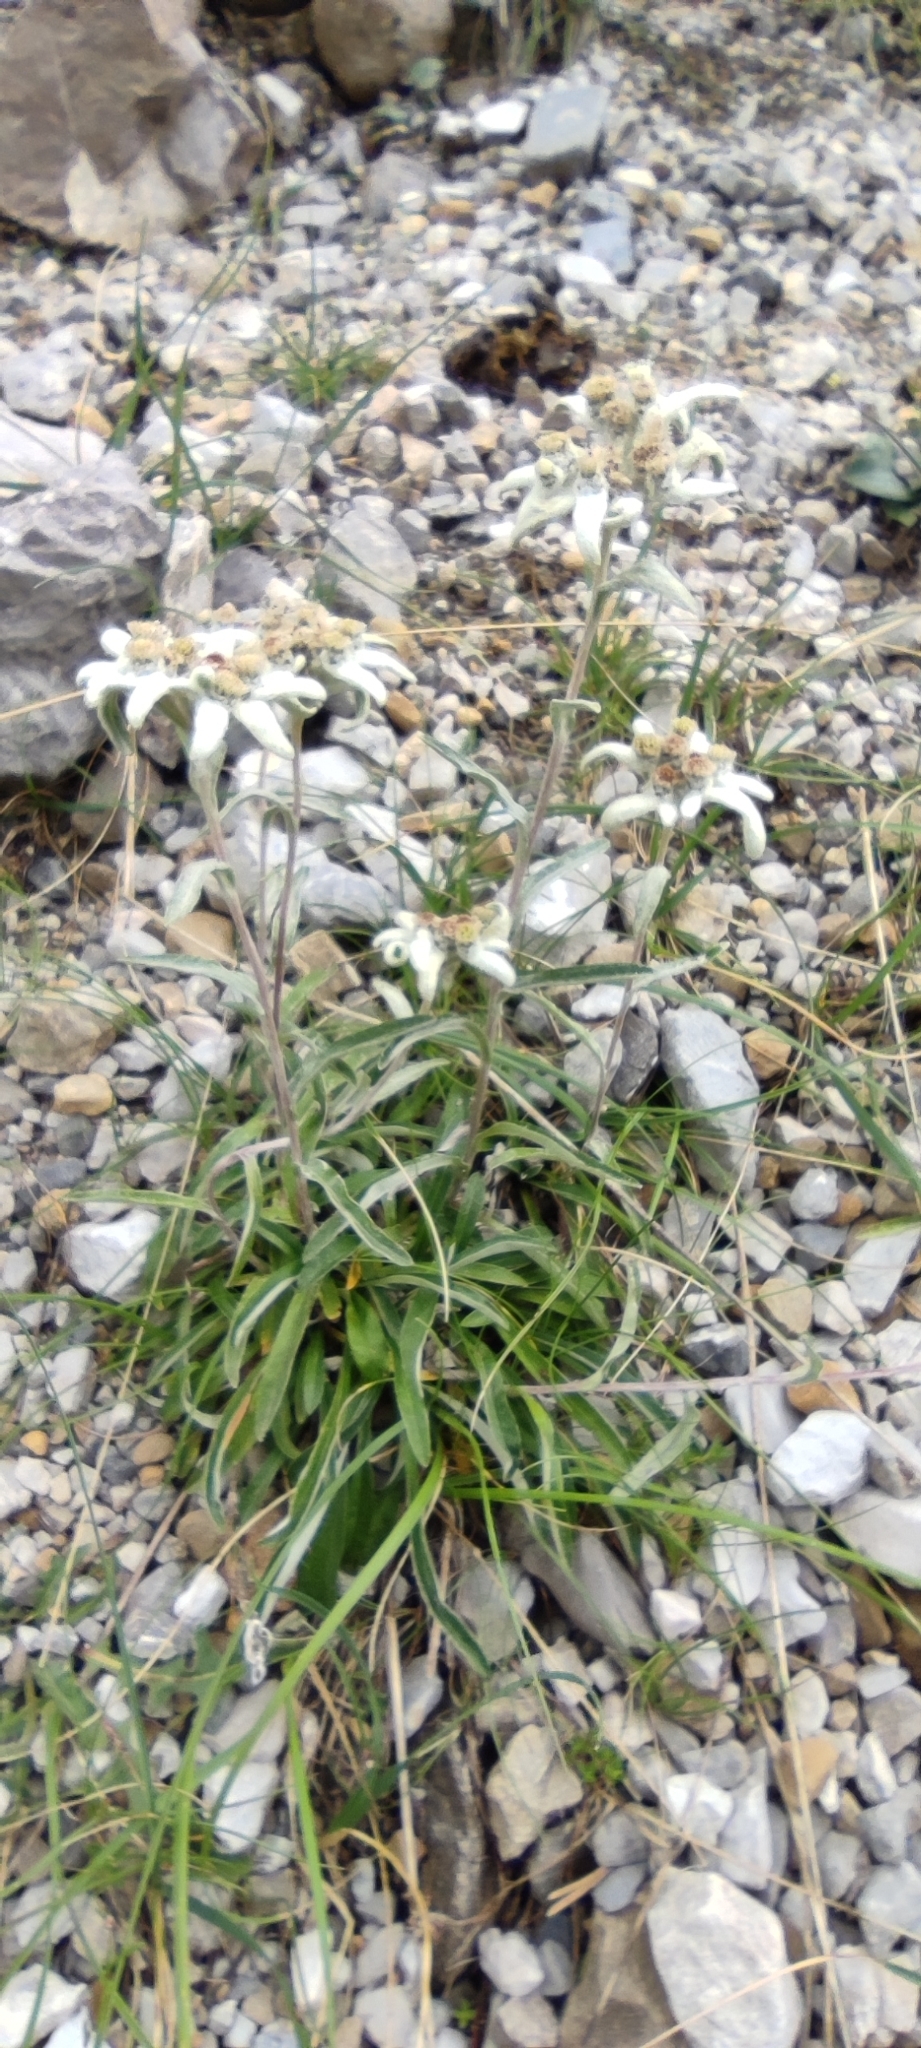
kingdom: Plantae
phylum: Tracheophyta
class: Magnoliopsida
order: Asterales
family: Asteraceae
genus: Leontopodium
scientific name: Leontopodium nivale
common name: Edelweiss
